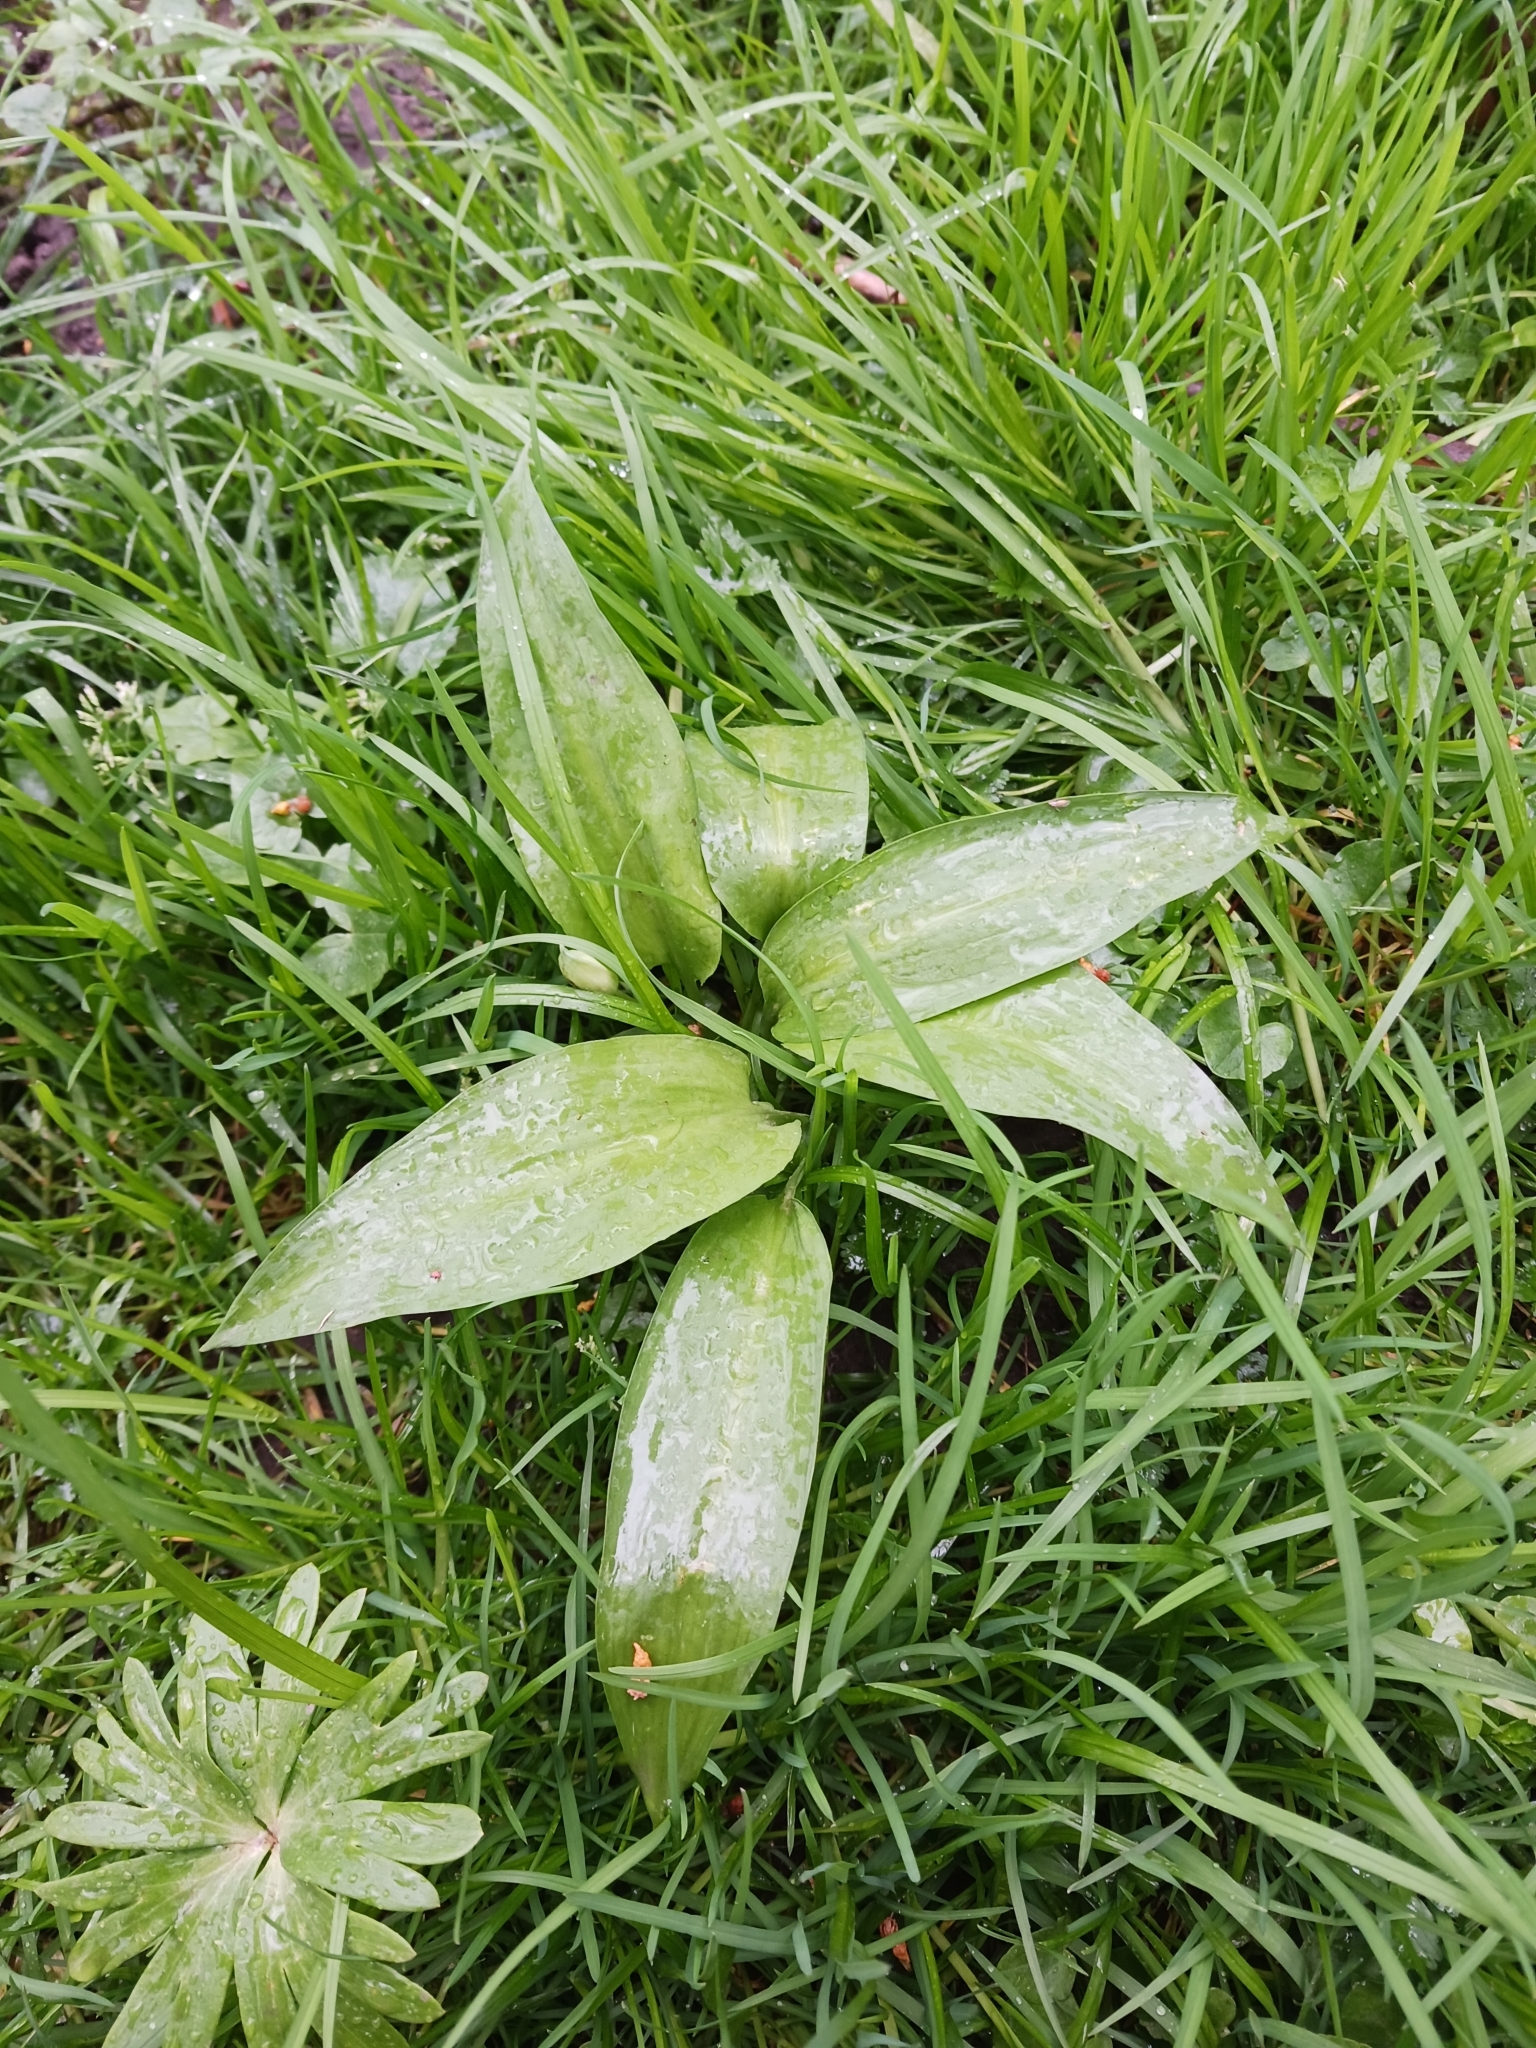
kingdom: Plantae
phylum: Tracheophyta
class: Liliopsida
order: Asparagales
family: Amaryllidaceae
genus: Allium
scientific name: Allium ursinum
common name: Ramsons
